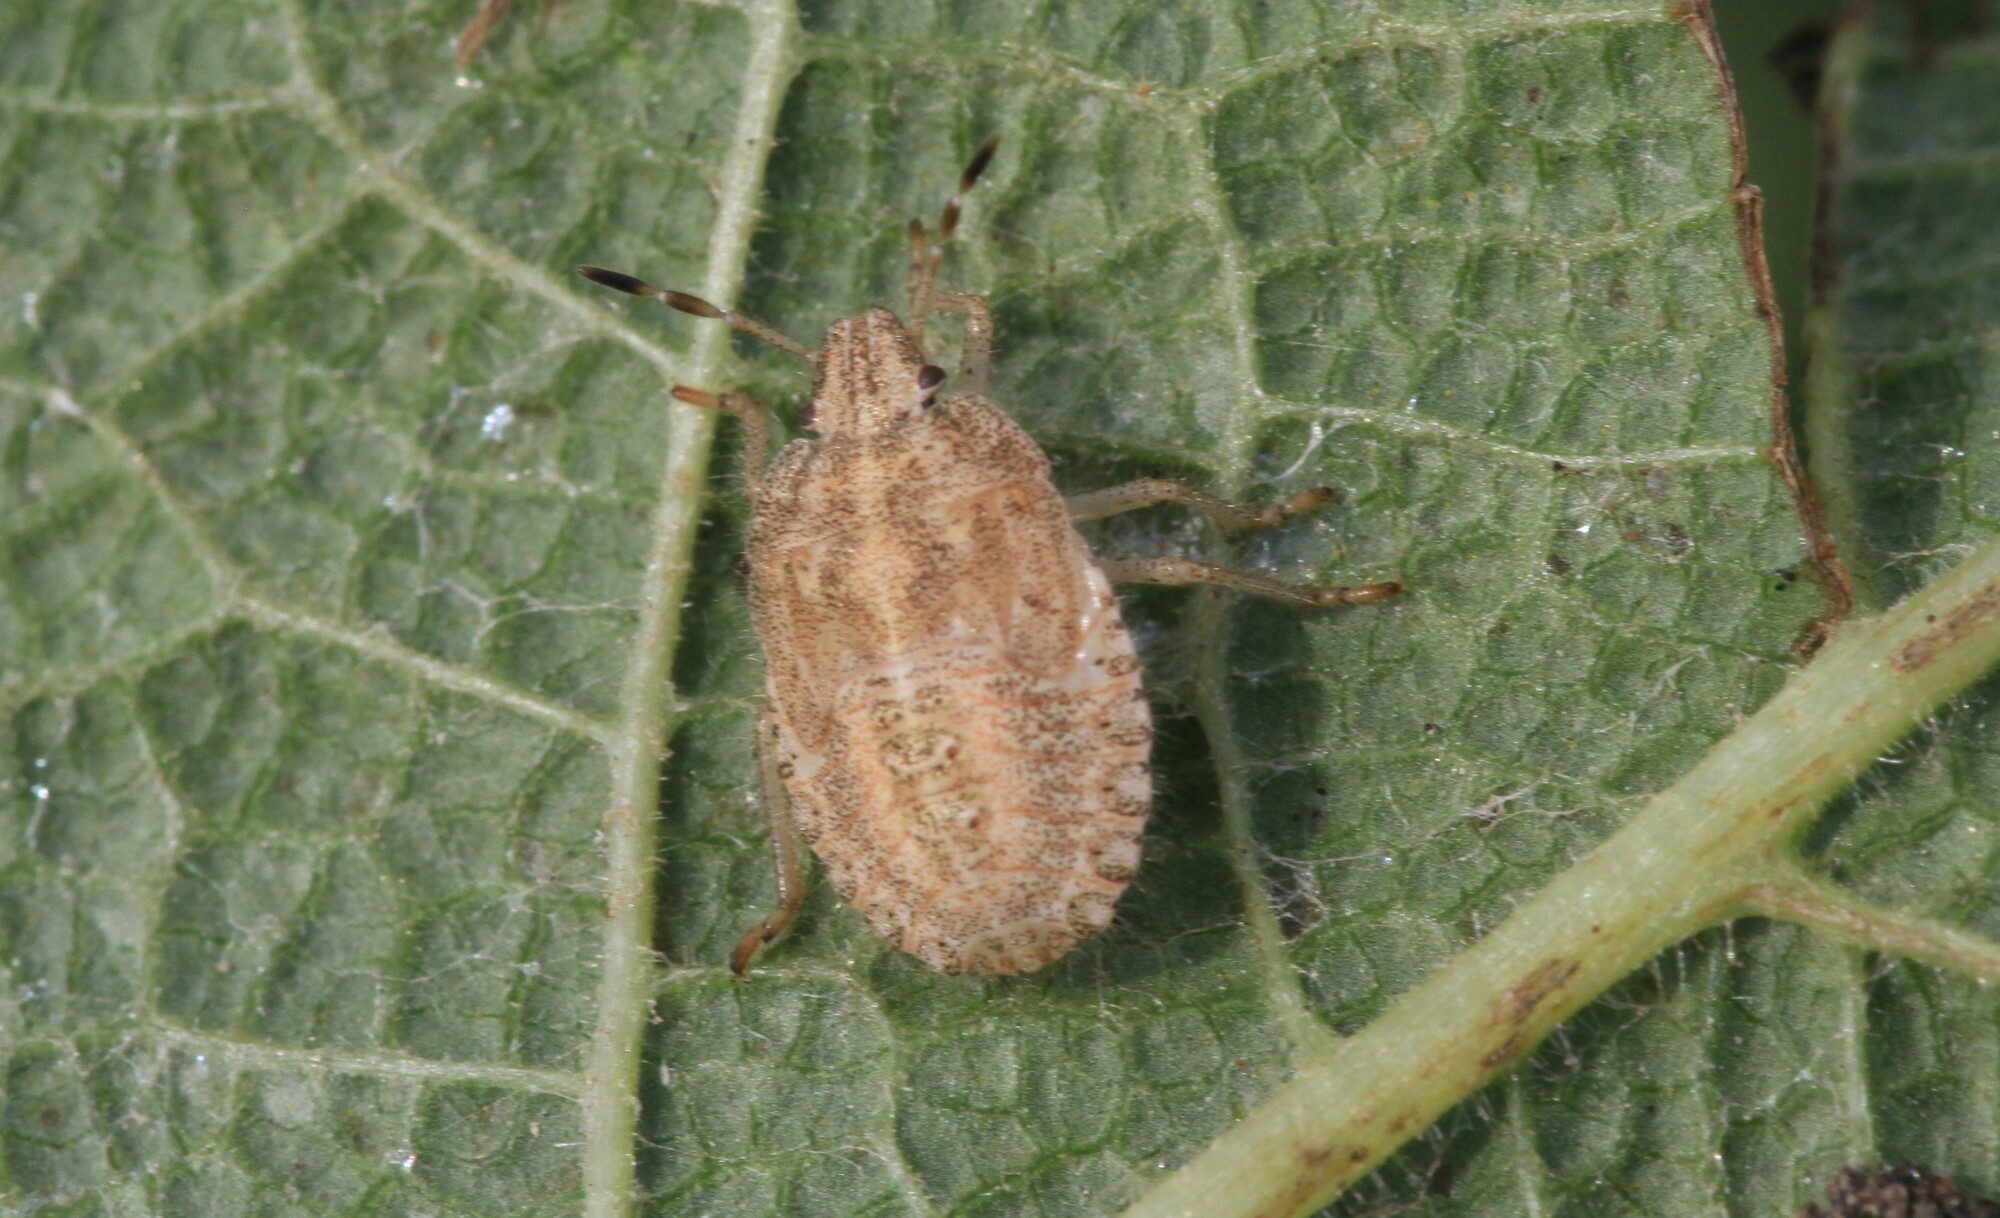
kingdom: Animalia
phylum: Arthropoda
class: Insecta
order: Hemiptera
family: Pentatomidae
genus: Dolycoris
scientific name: Dolycoris baccarum
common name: Sloe bug
